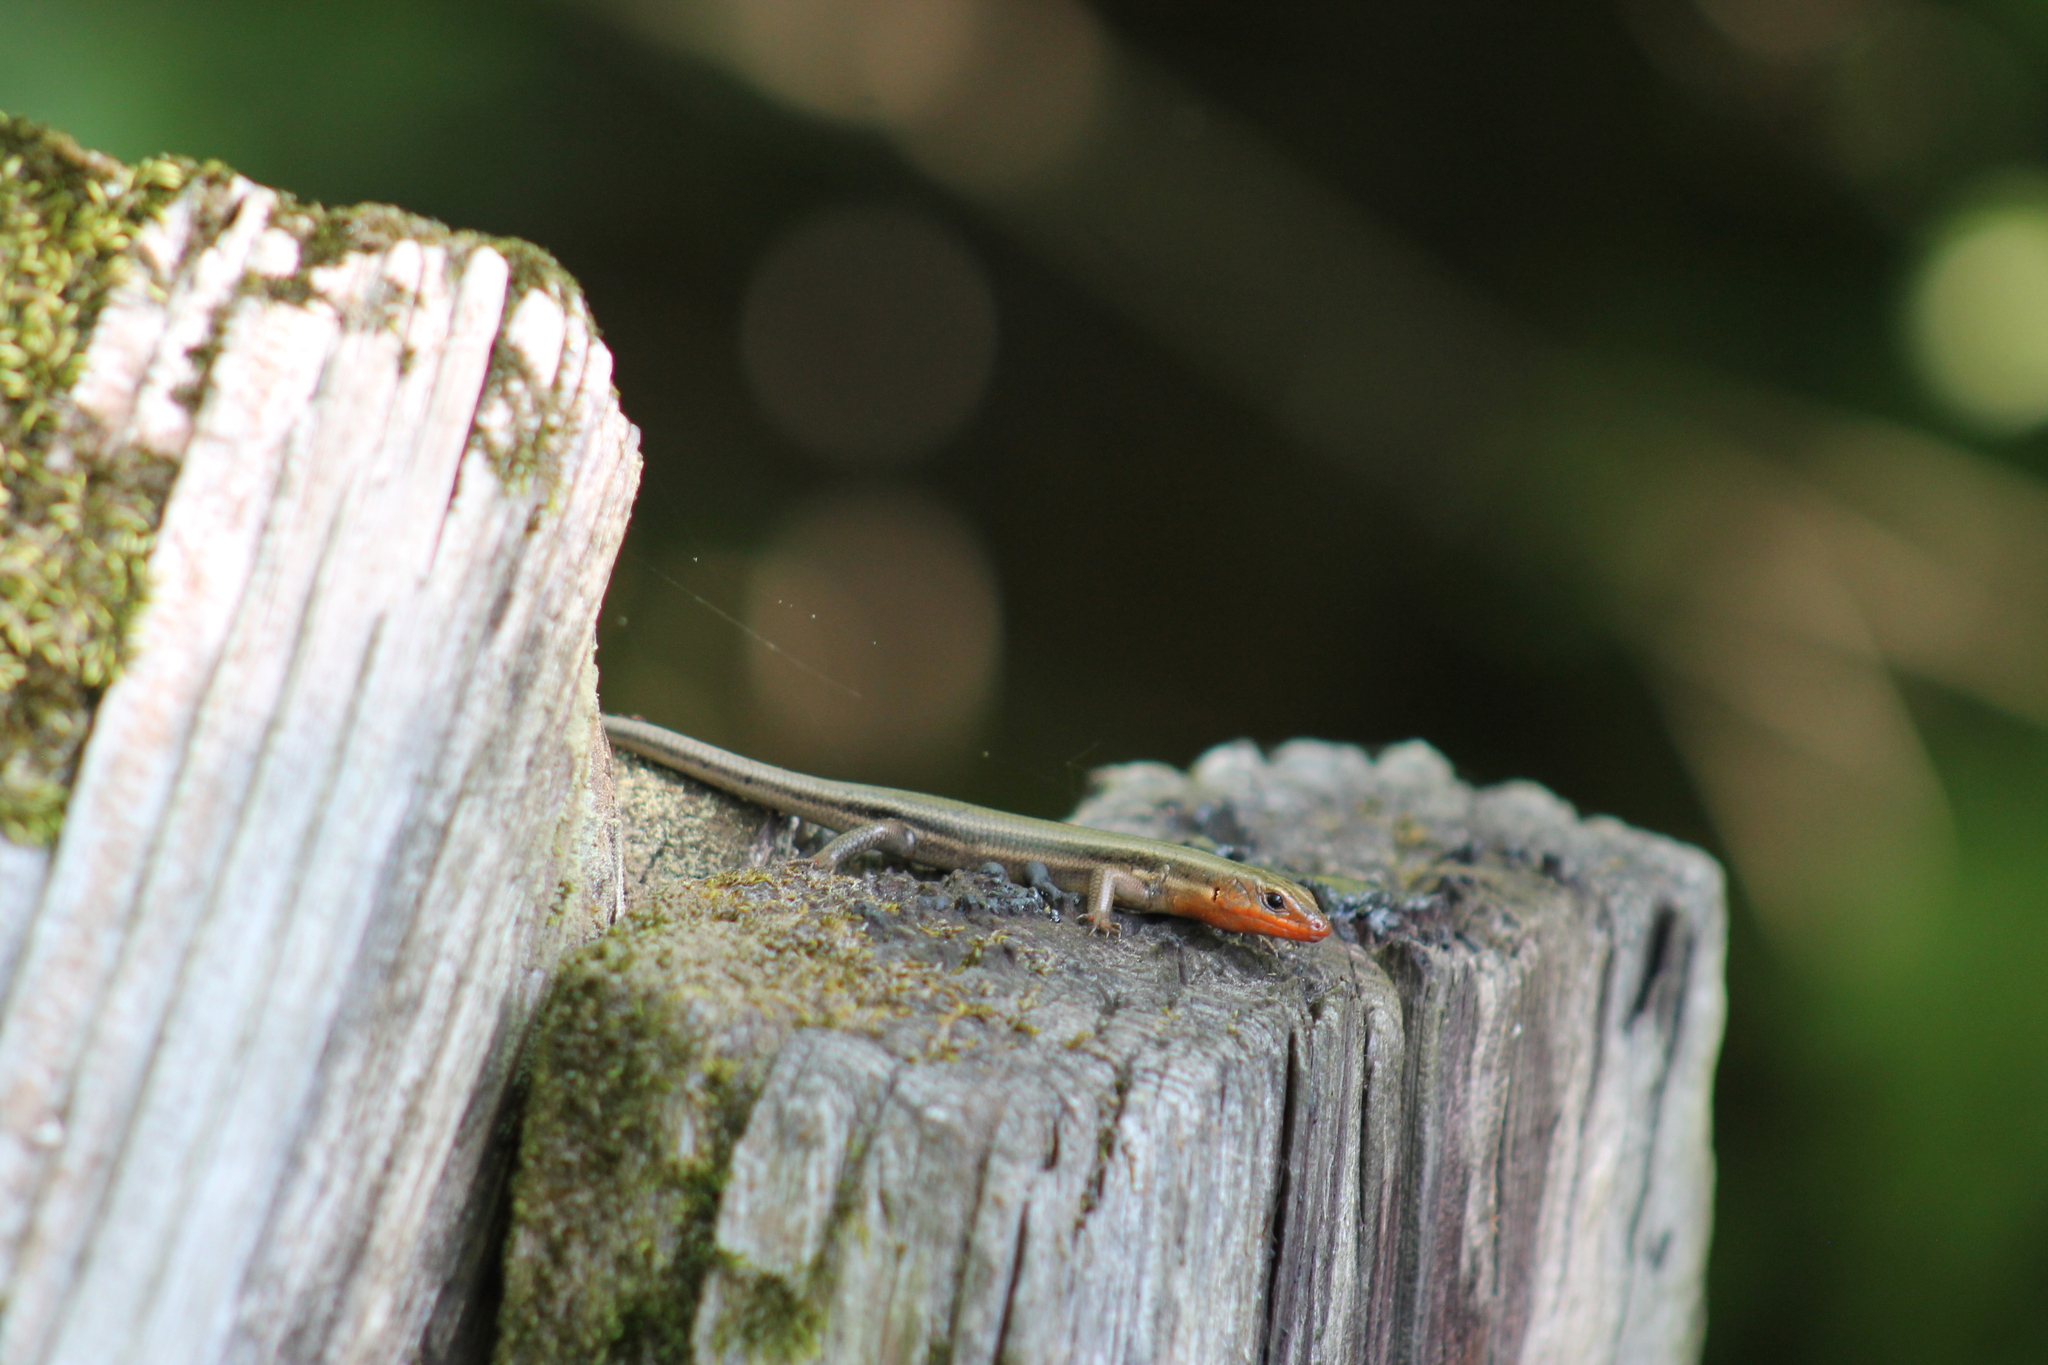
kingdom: Animalia
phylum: Chordata
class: Squamata
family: Scincidae
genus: Plestiodon
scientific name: Plestiodon fasciatus
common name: Five-lined skink
